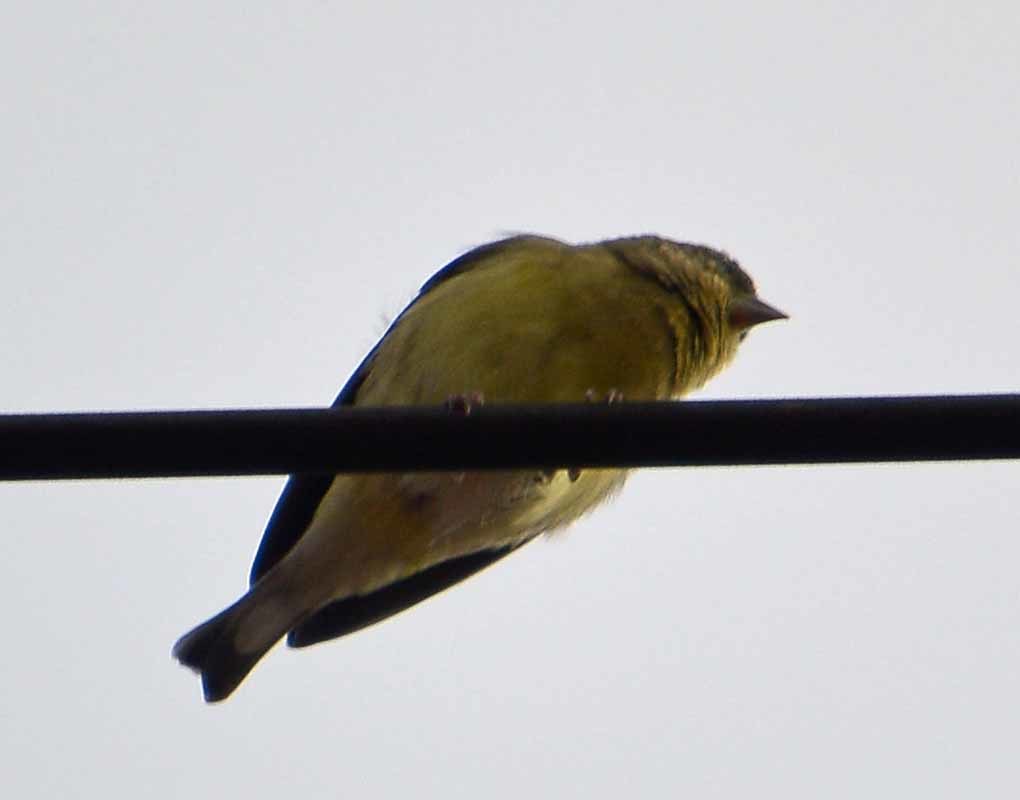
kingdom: Animalia
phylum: Chordata
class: Aves
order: Passeriformes
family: Fringillidae
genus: Spinus
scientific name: Spinus psaltria
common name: Lesser goldfinch
